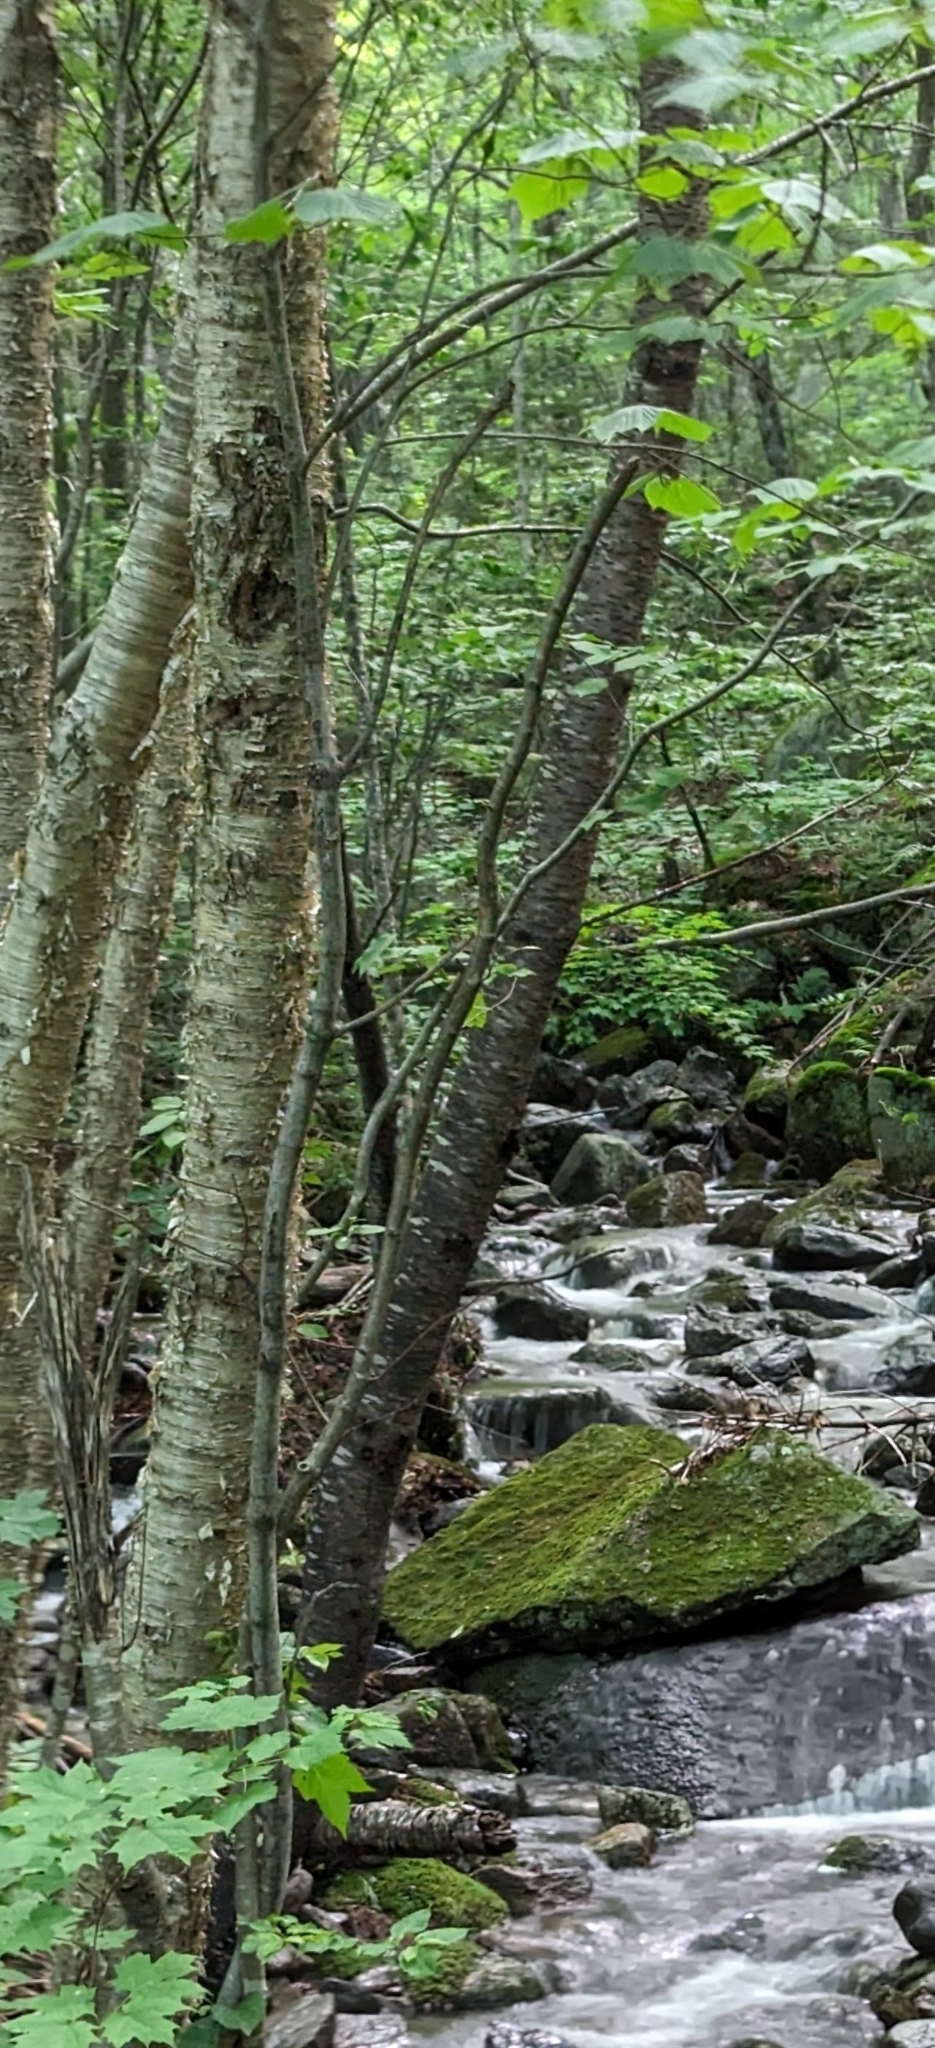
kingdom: Plantae
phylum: Tracheophyta
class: Magnoliopsida
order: Fagales
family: Betulaceae
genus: Betula
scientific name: Betula alleghaniensis
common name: Yellow birch
